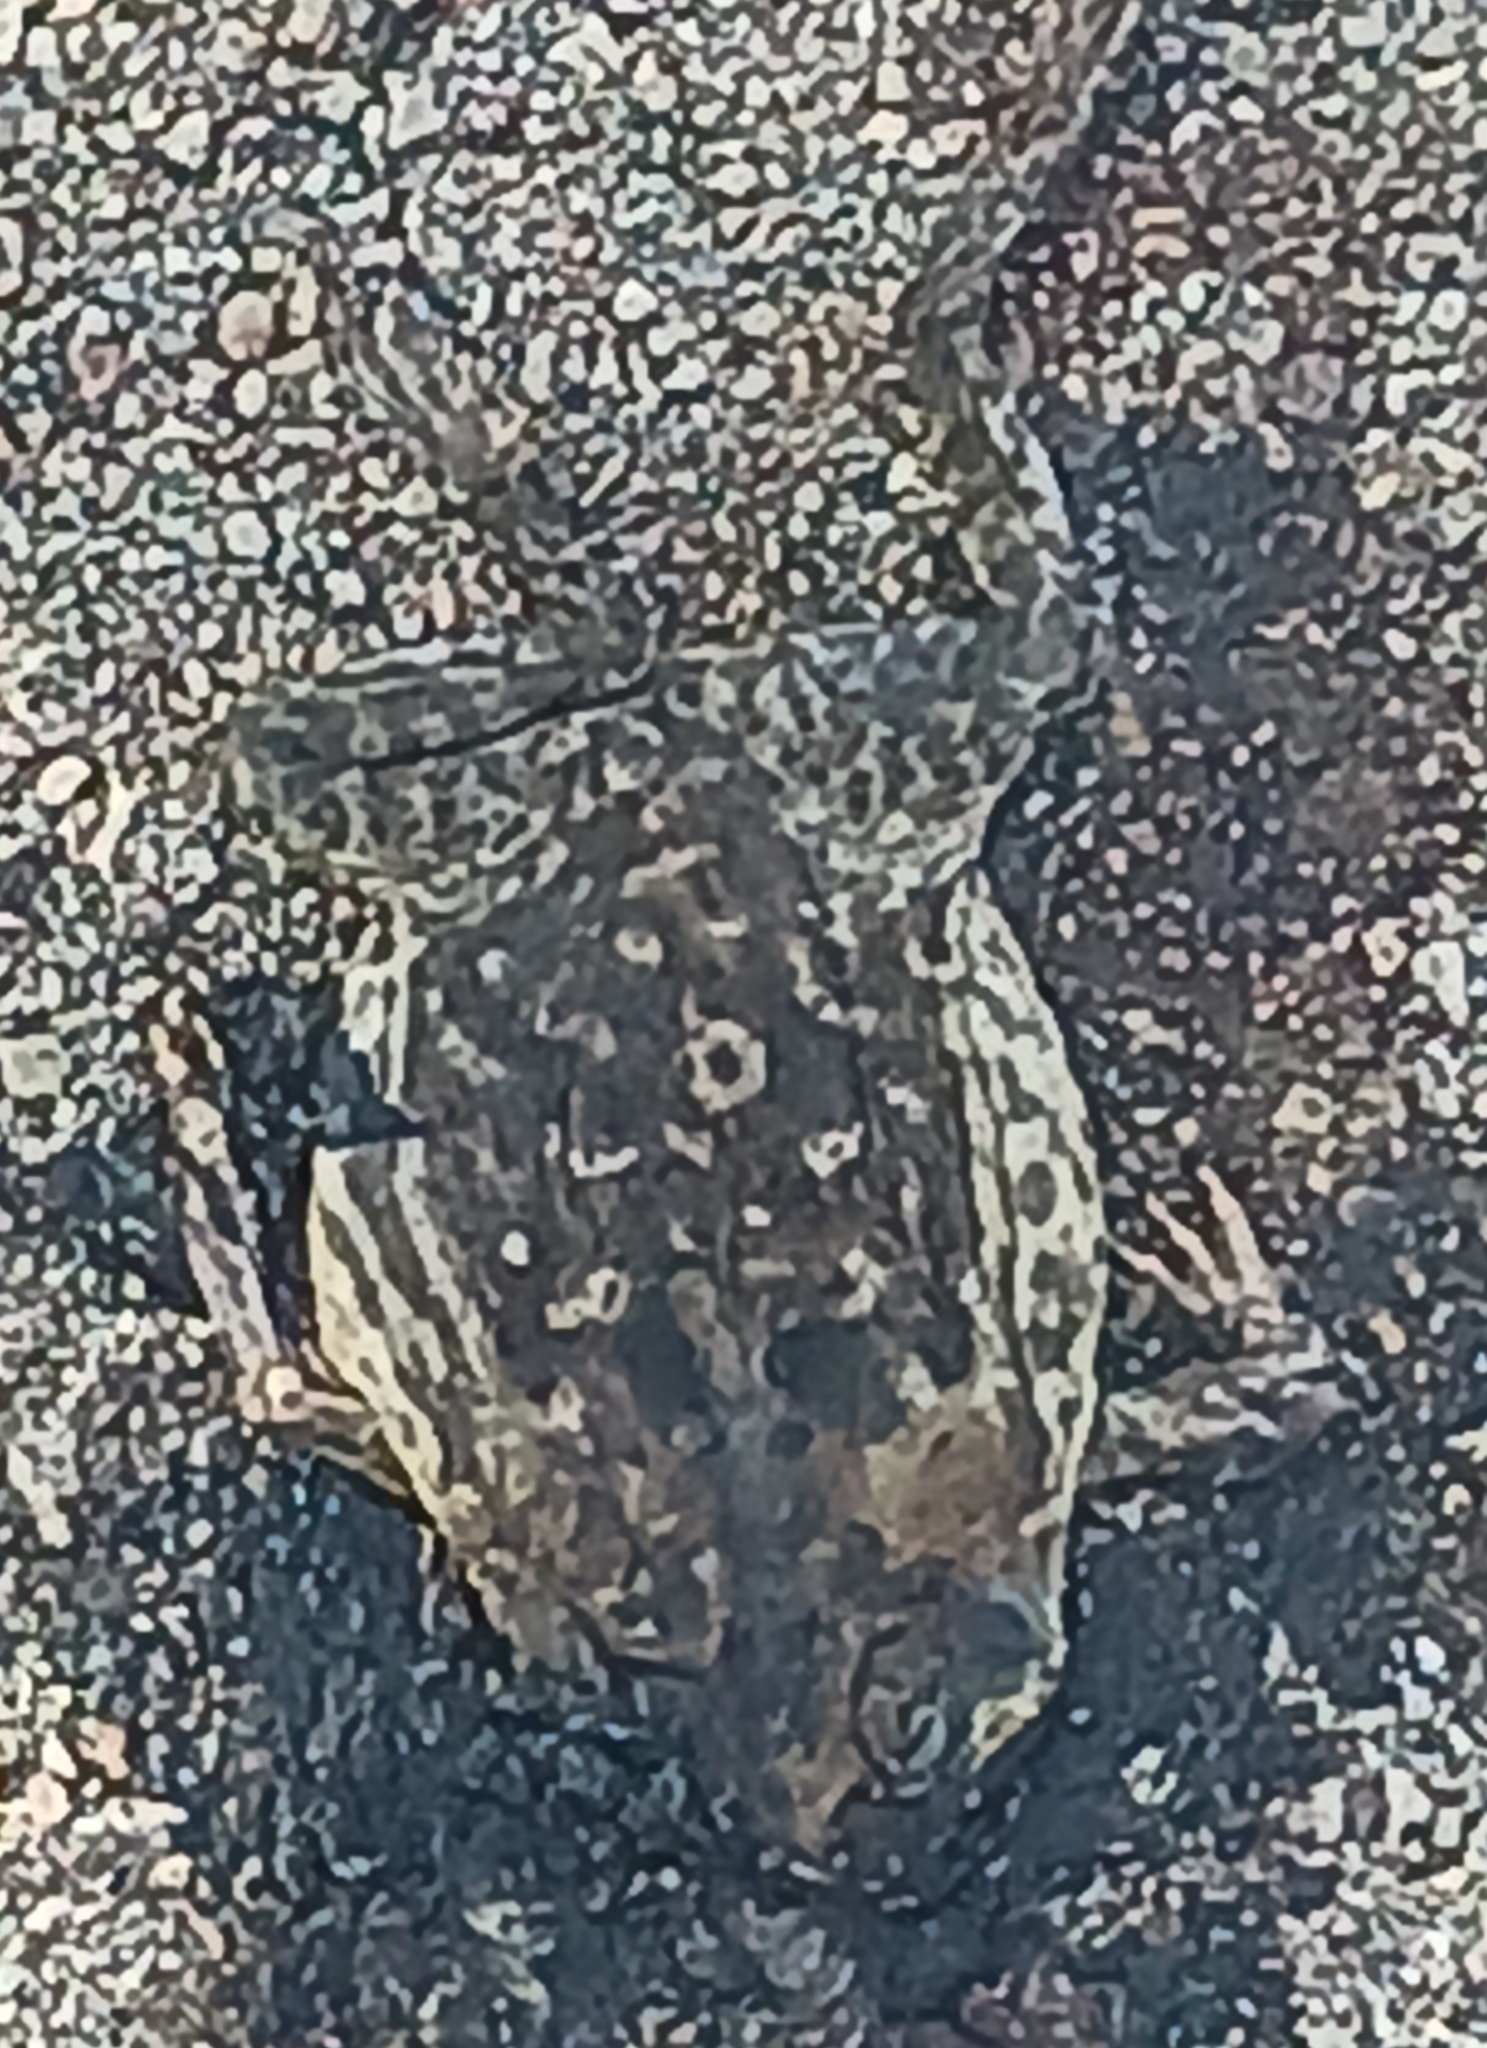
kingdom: Animalia
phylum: Chordata
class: Amphibia
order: Anura
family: Bufonidae
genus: Rhinella
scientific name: Rhinella marina
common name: Cane toad
